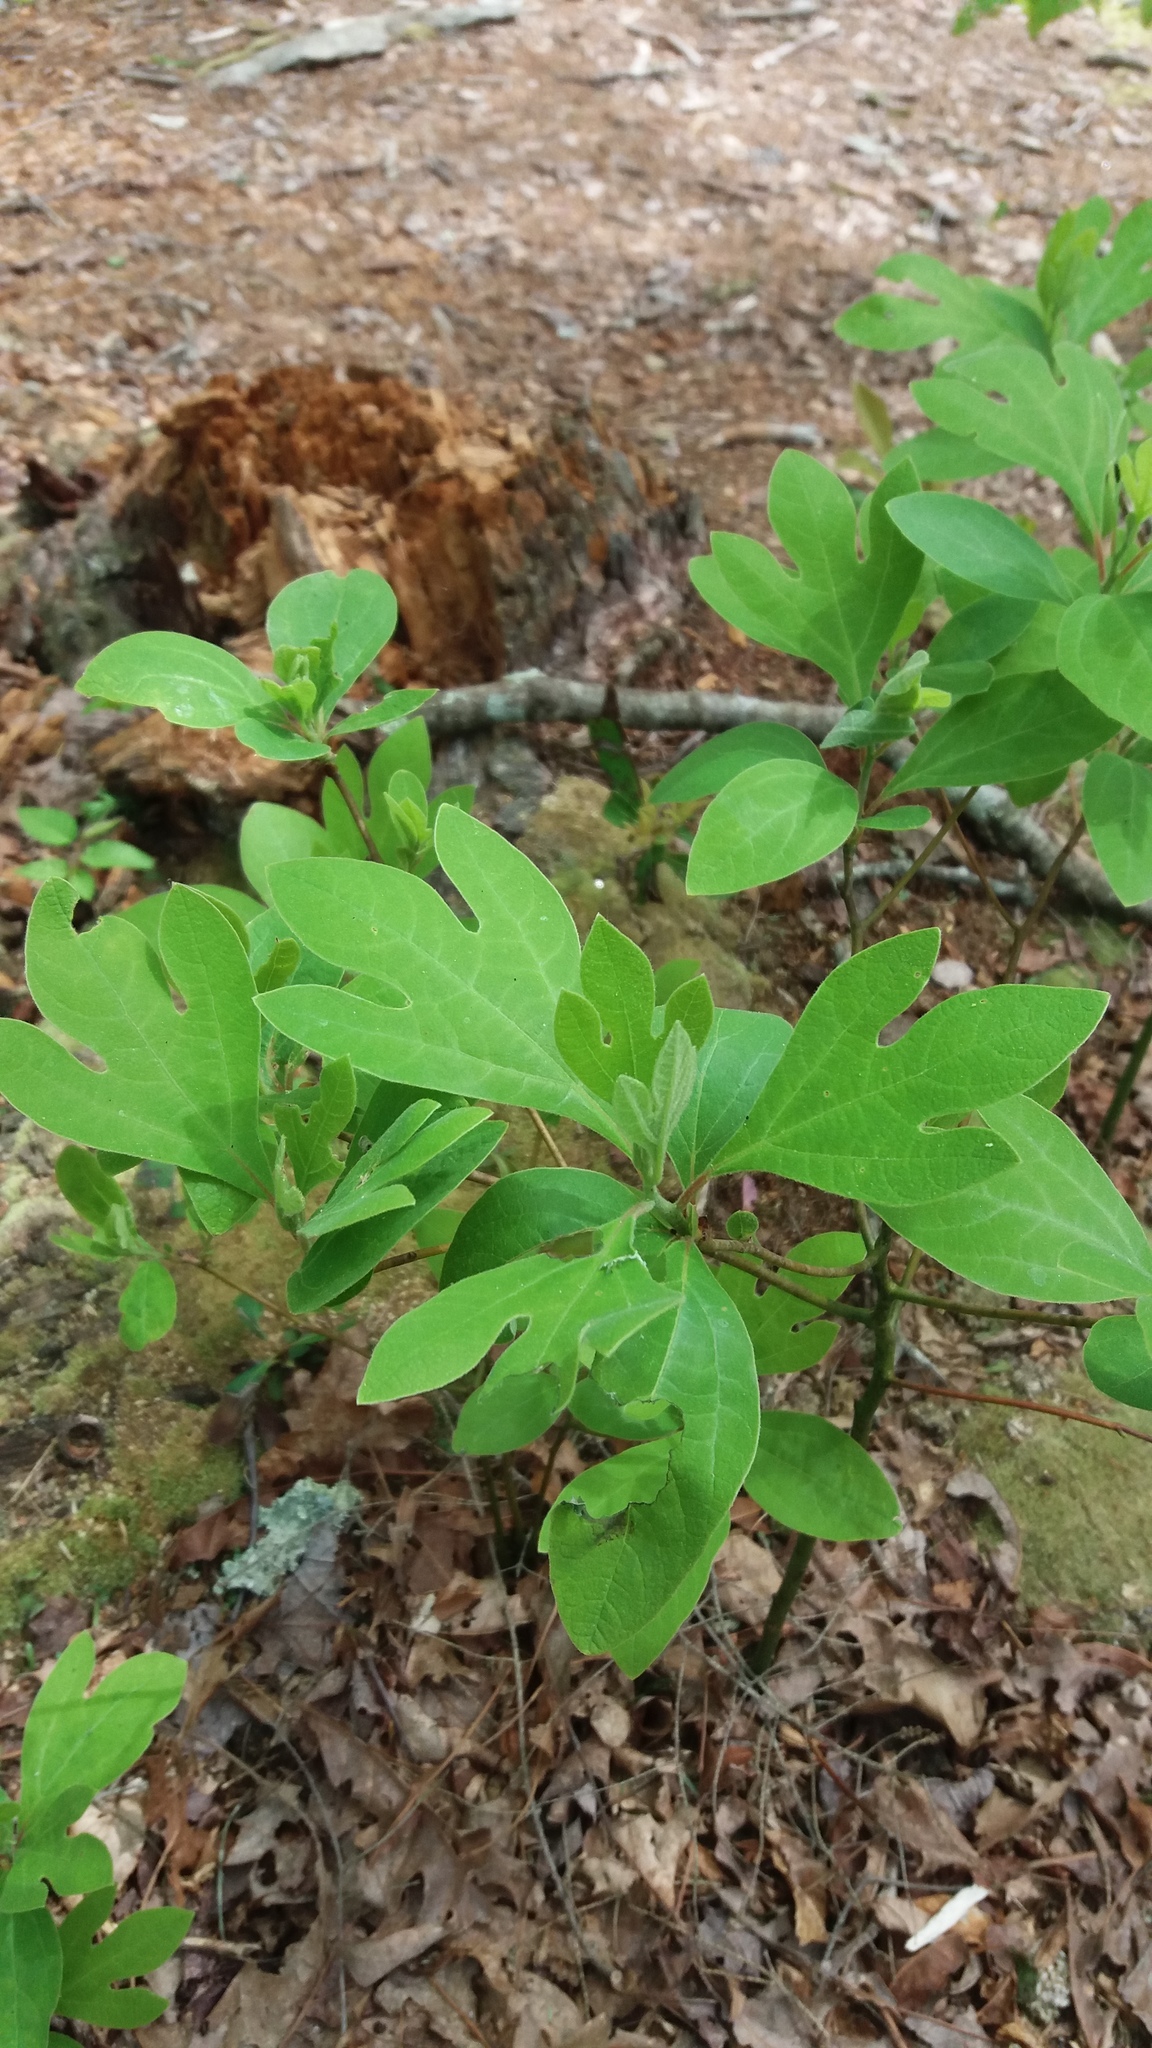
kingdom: Plantae
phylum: Tracheophyta
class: Magnoliopsida
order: Laurales
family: Lauraceae
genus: Sassafras
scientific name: Sassafras albidum
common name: Sassafras
